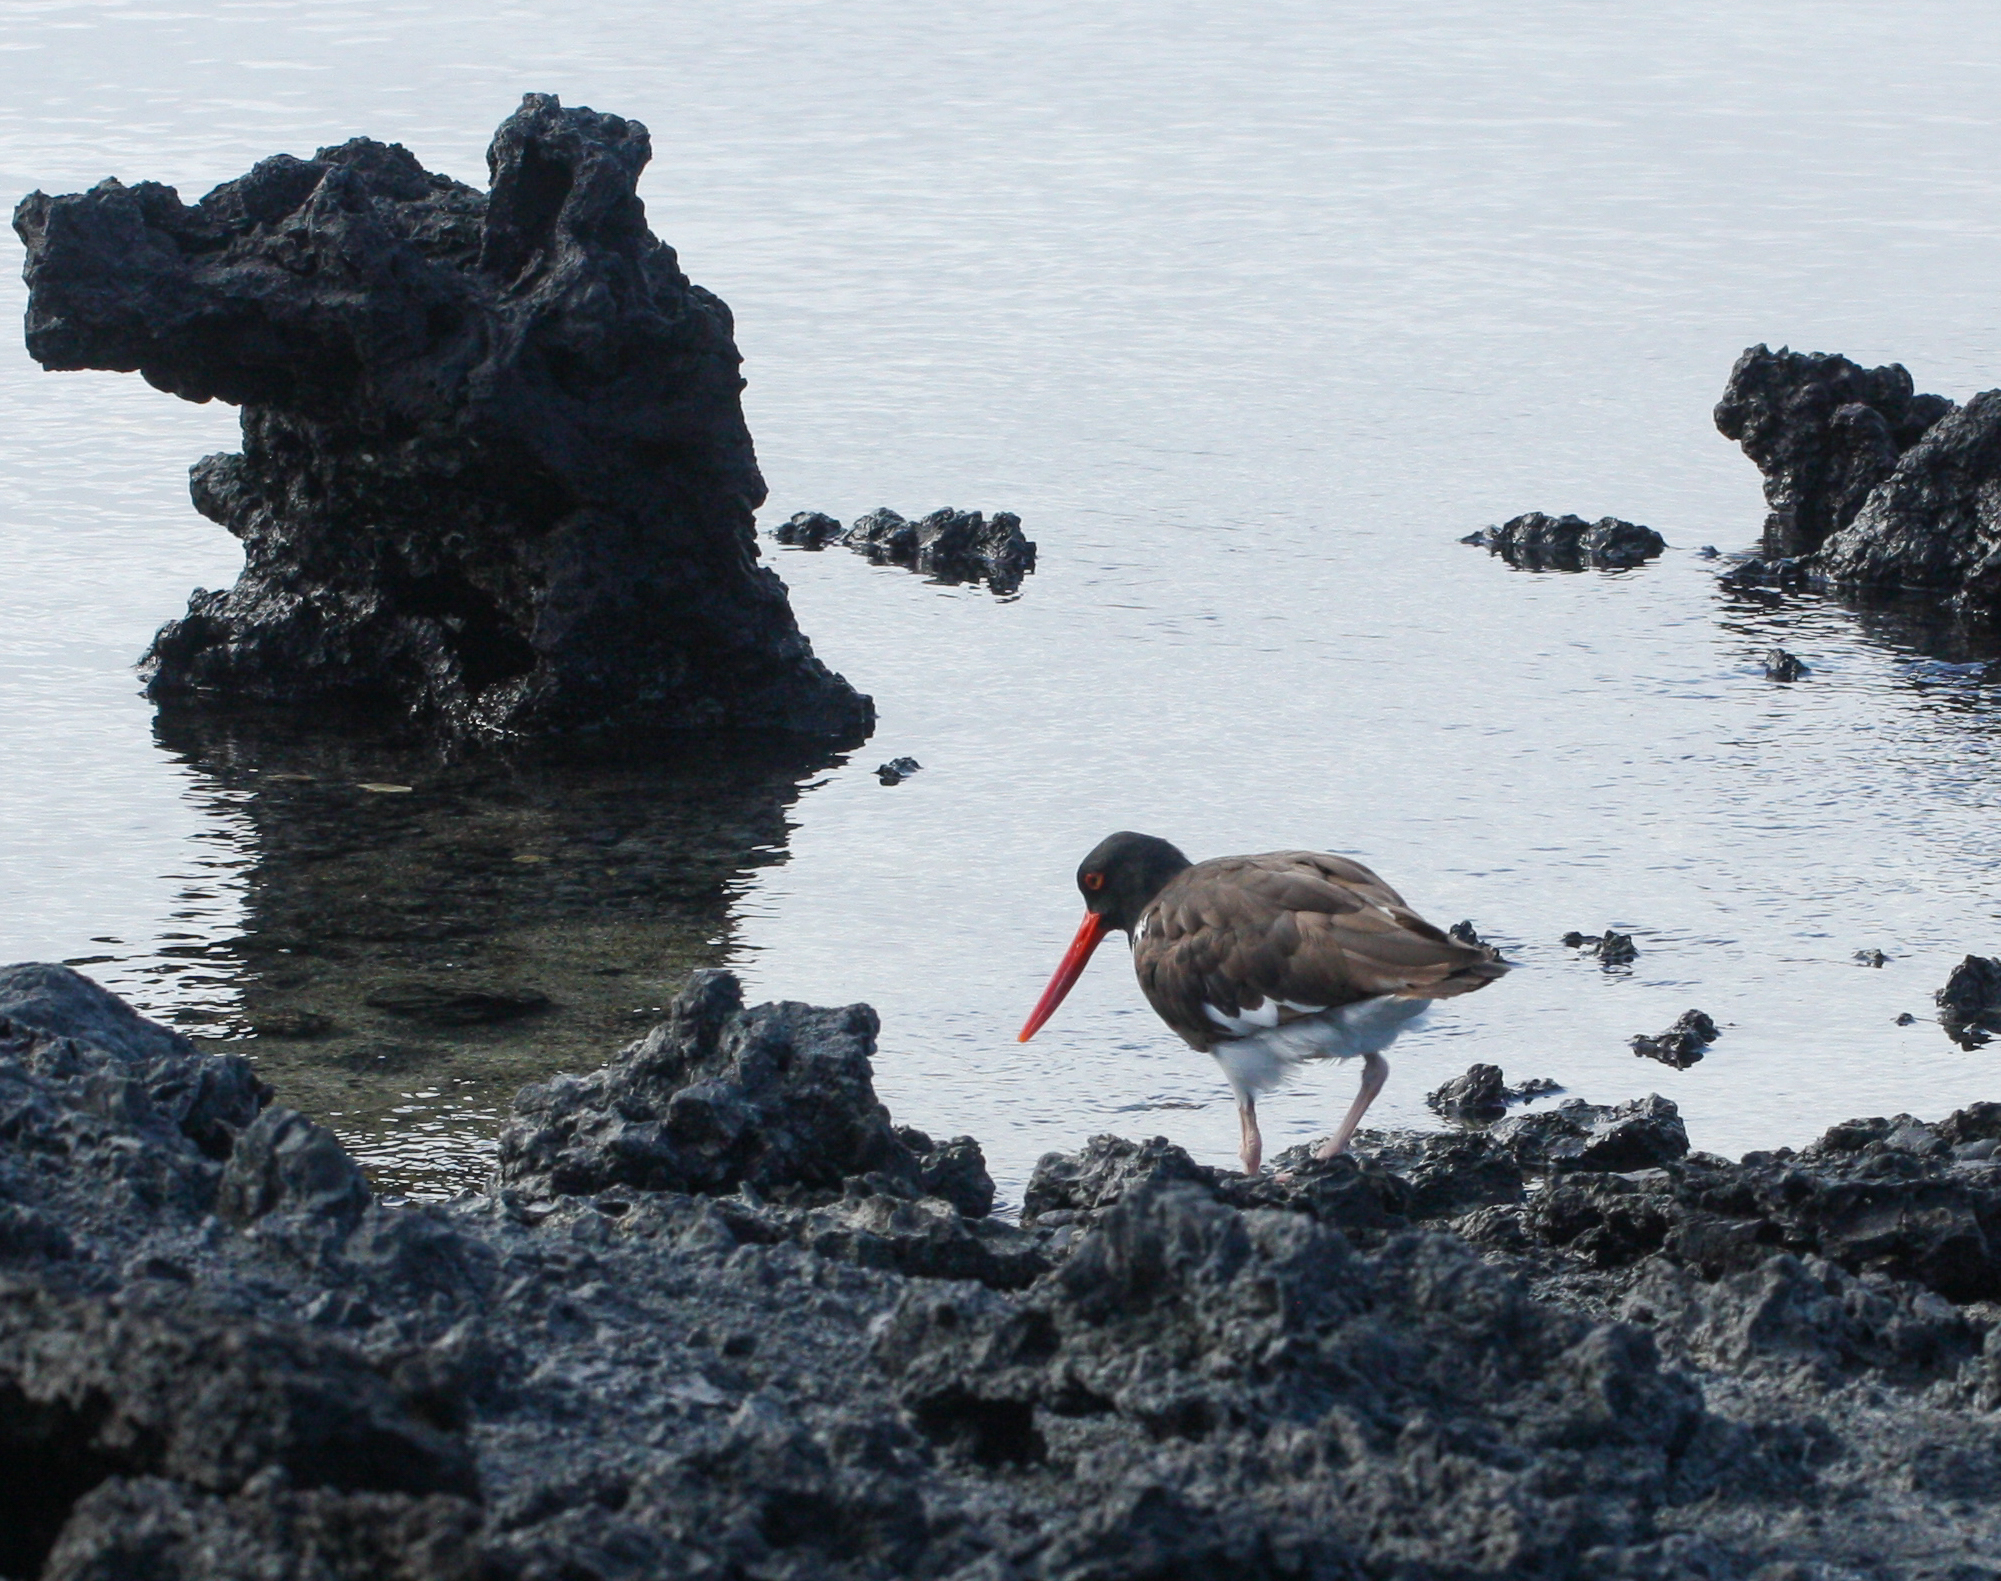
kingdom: Animalia
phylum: Chordata
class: Aves
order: Charadriiformes
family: Haematopodidae
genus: Haematopus
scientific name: Haematopus palliatus
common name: American oystercatcher
